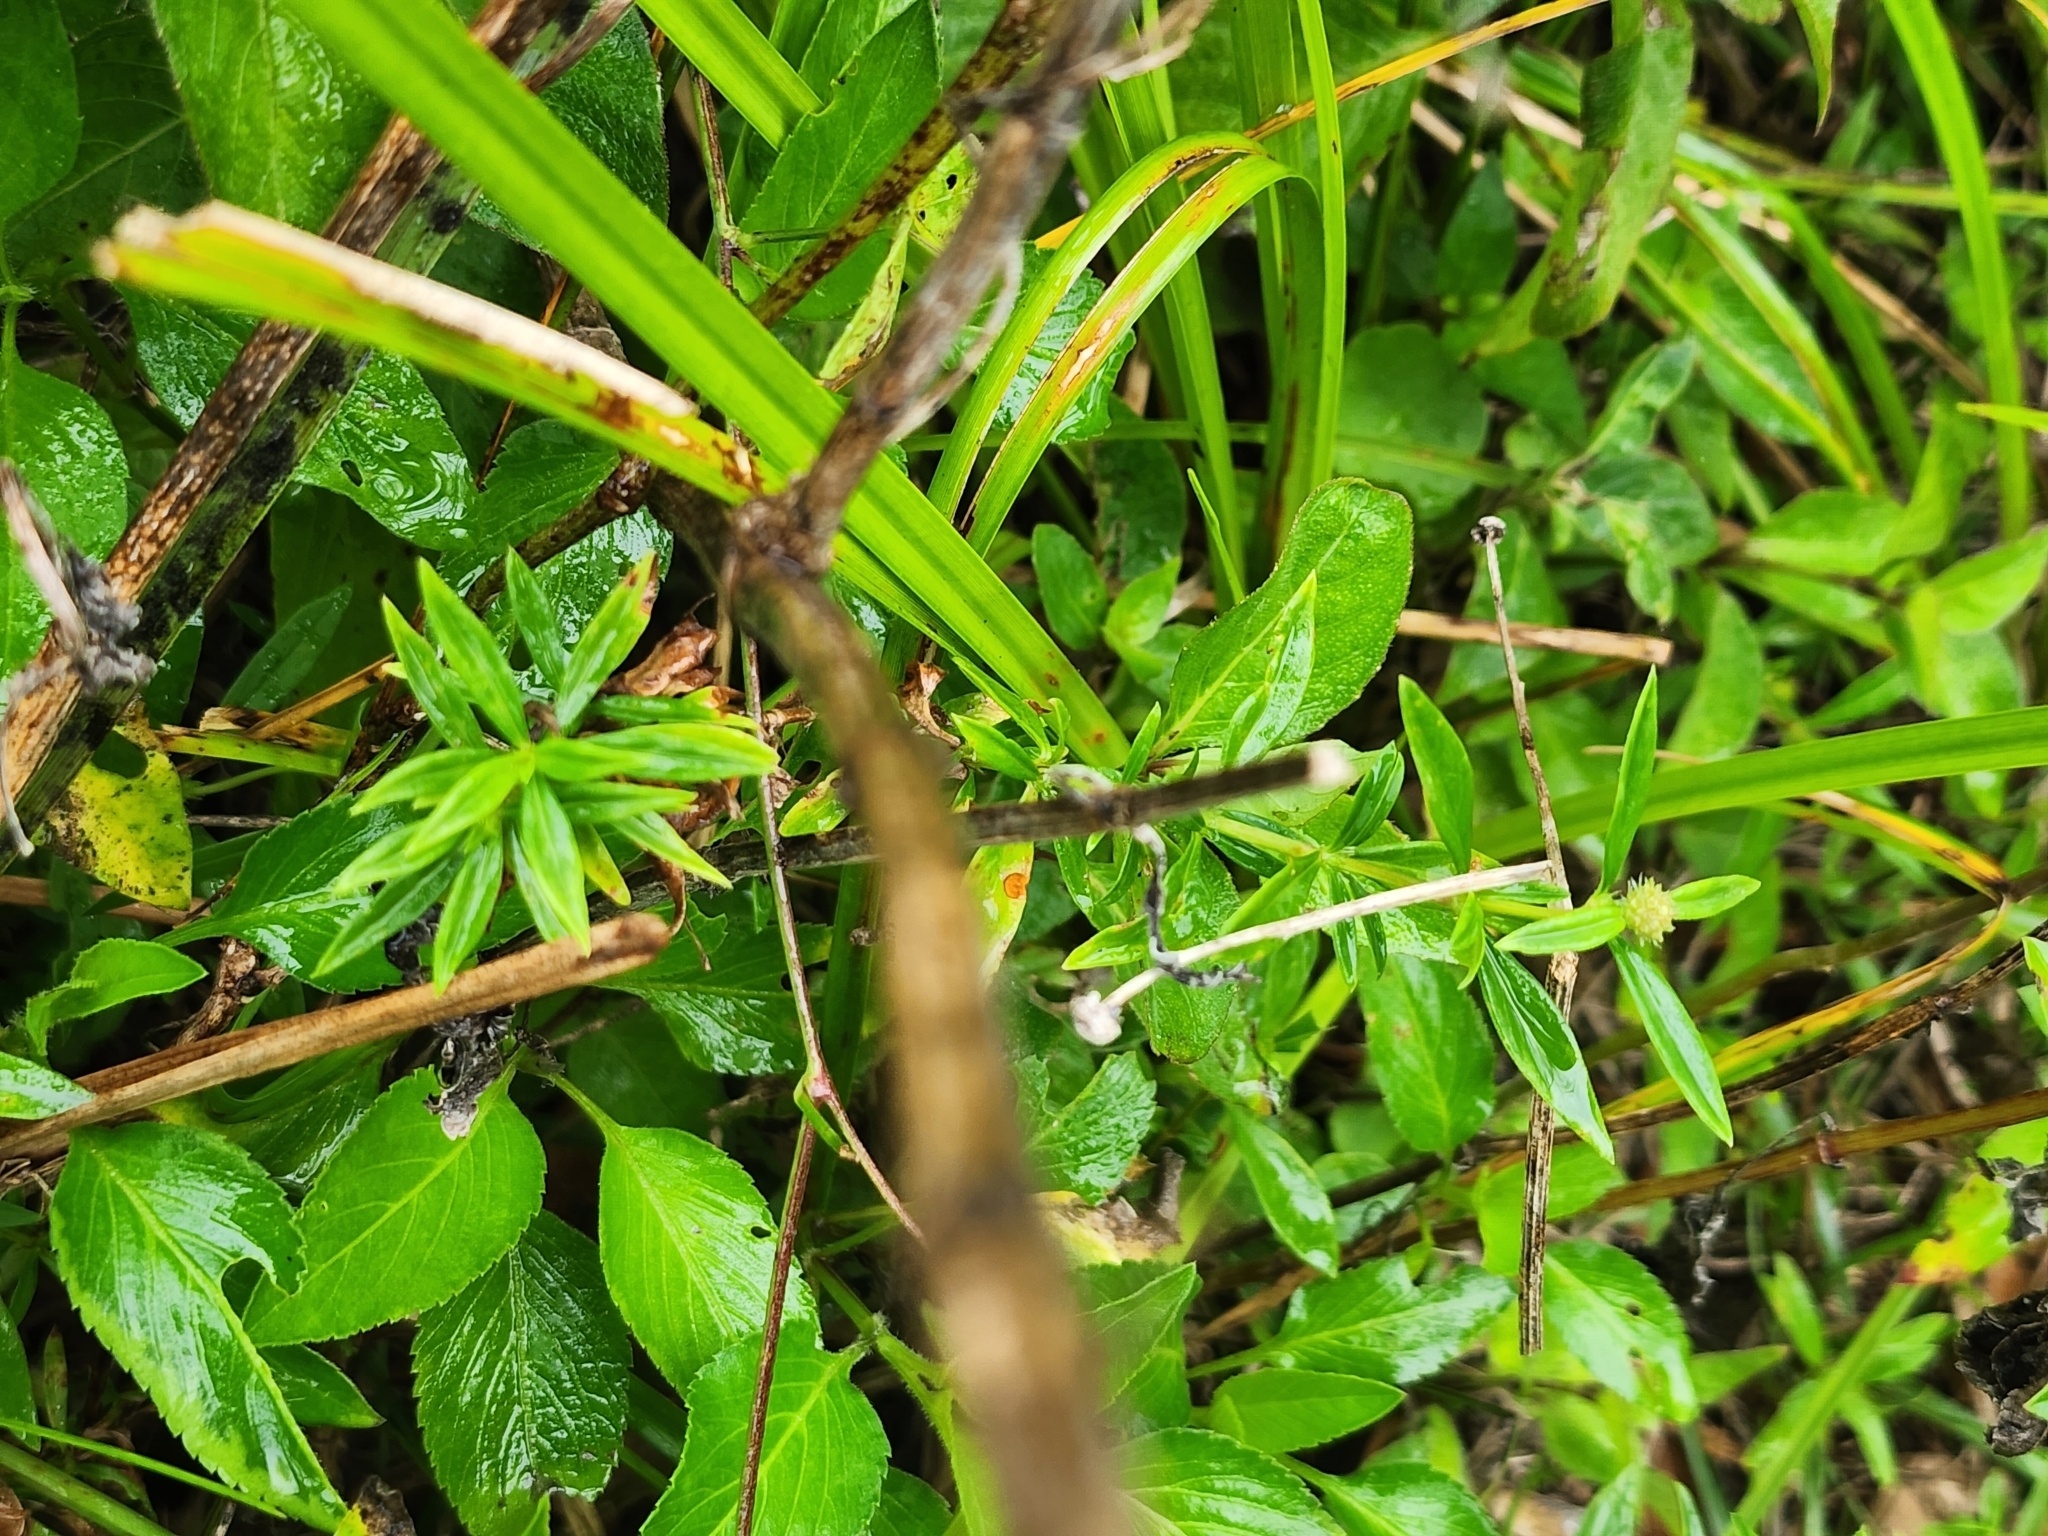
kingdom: Plantae
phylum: Tracheophyta
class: Magnoliopsida
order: Gentianales
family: Rubiaceae
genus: Spermacoce
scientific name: Spermacoce verticillata
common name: Shrubby false buttonweed
